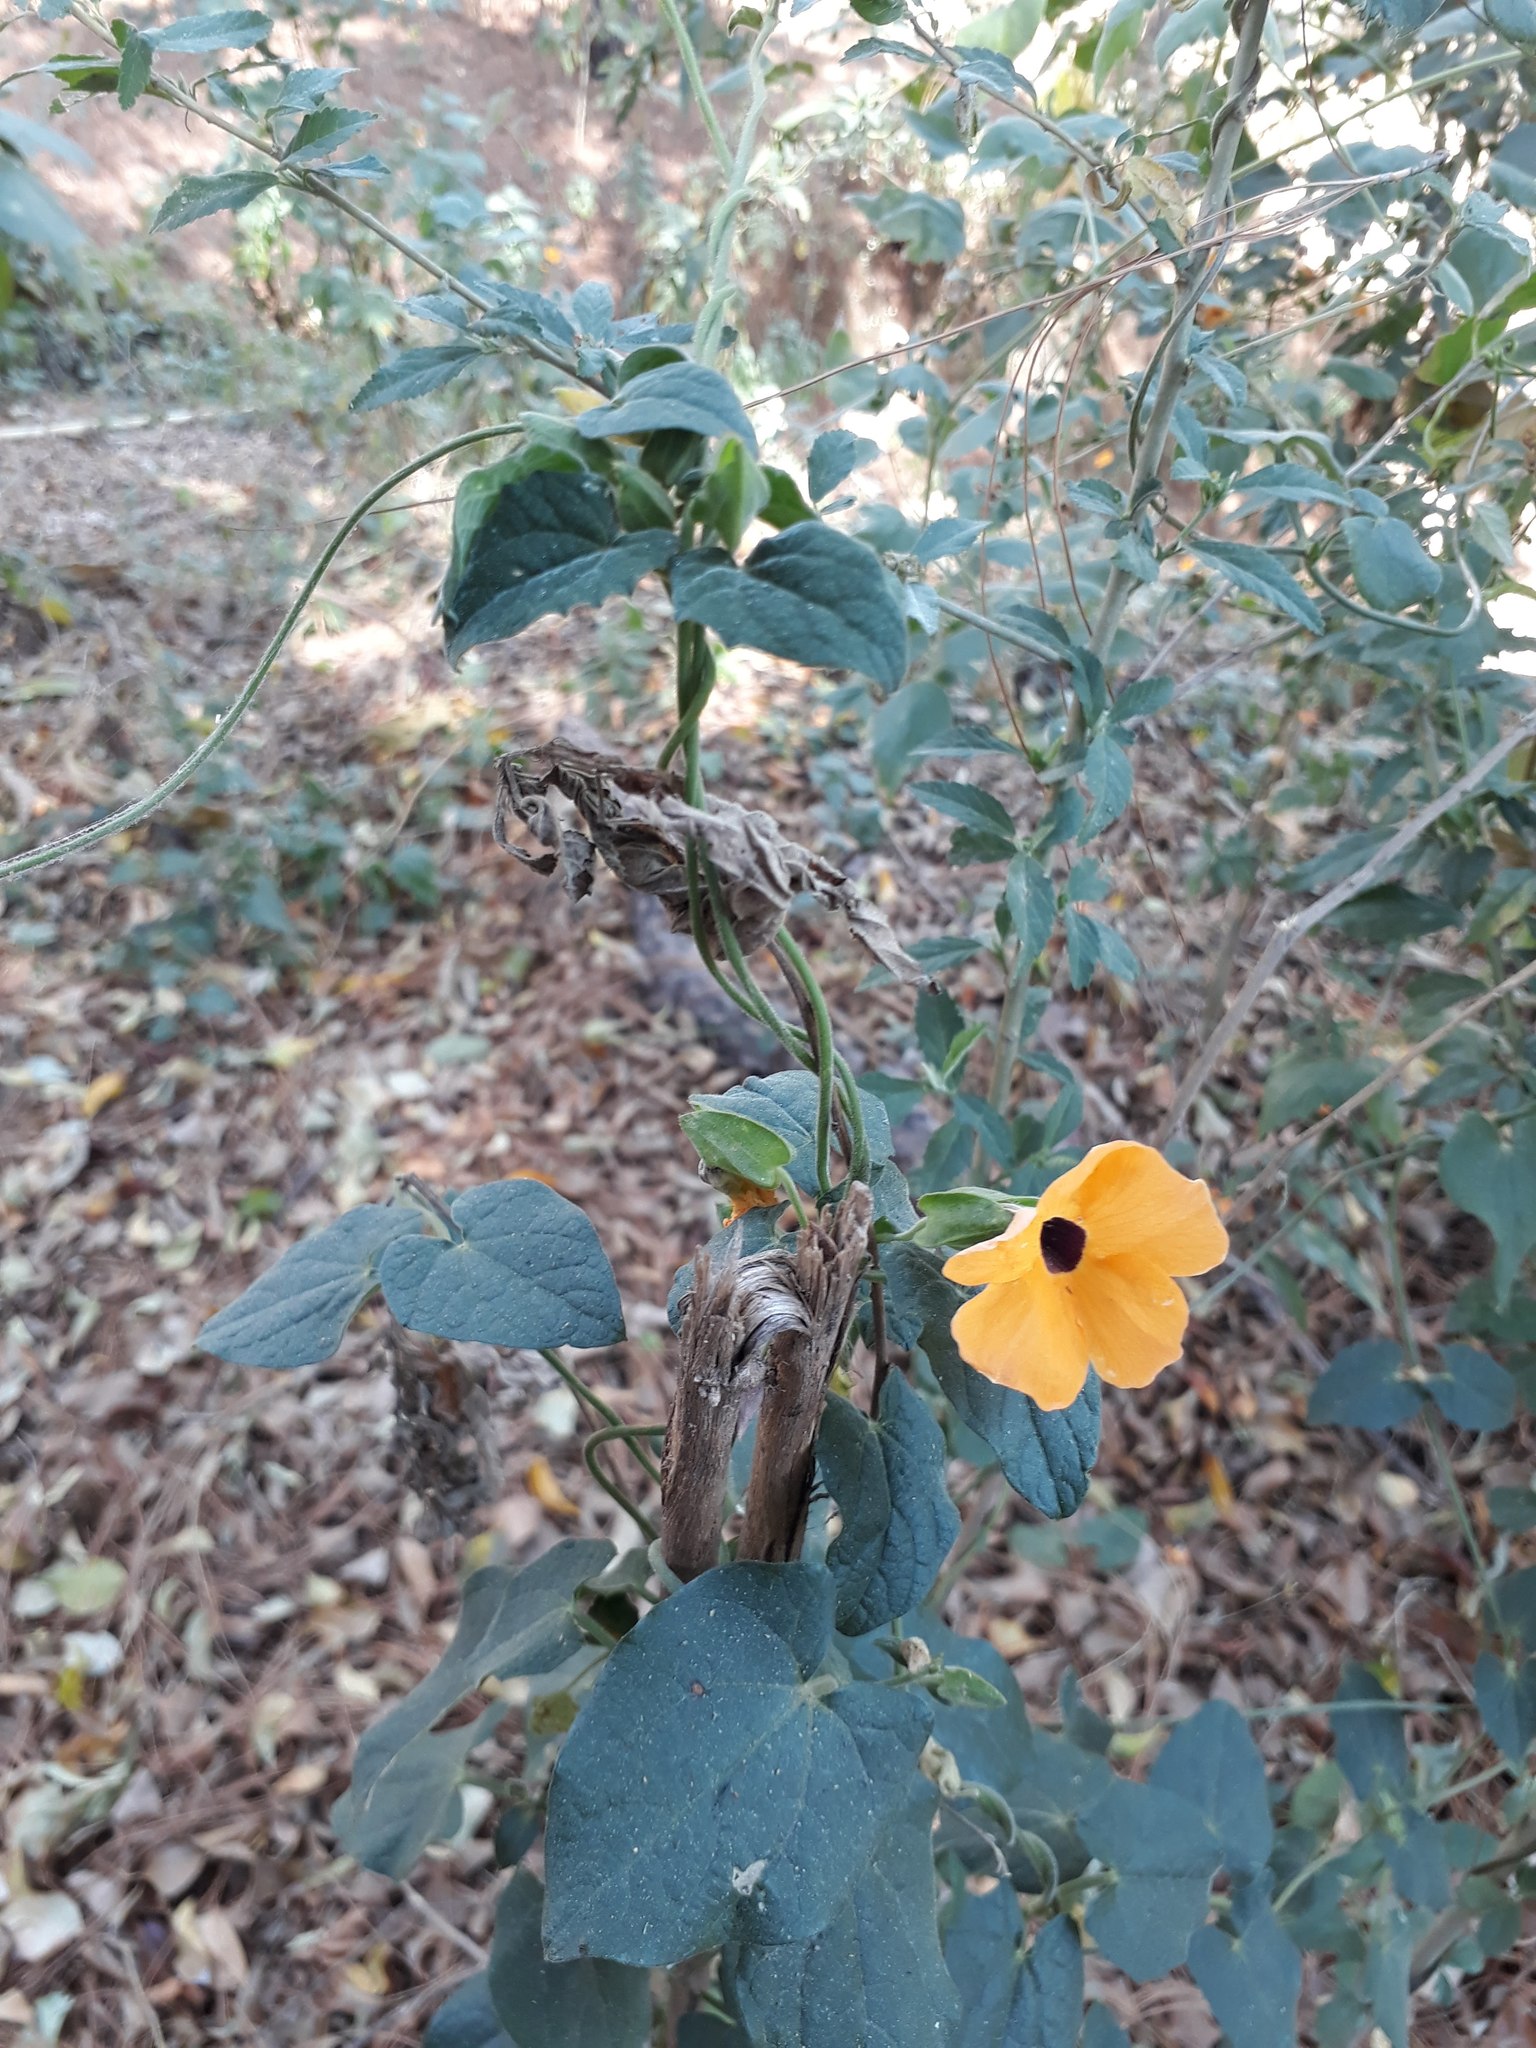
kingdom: Plantae
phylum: Tracheophyta
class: Magnoliopsida
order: Lamiales
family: Acanthaceae
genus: Thunbergia
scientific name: Thunbergia alata
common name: Blackeyed susan vine
